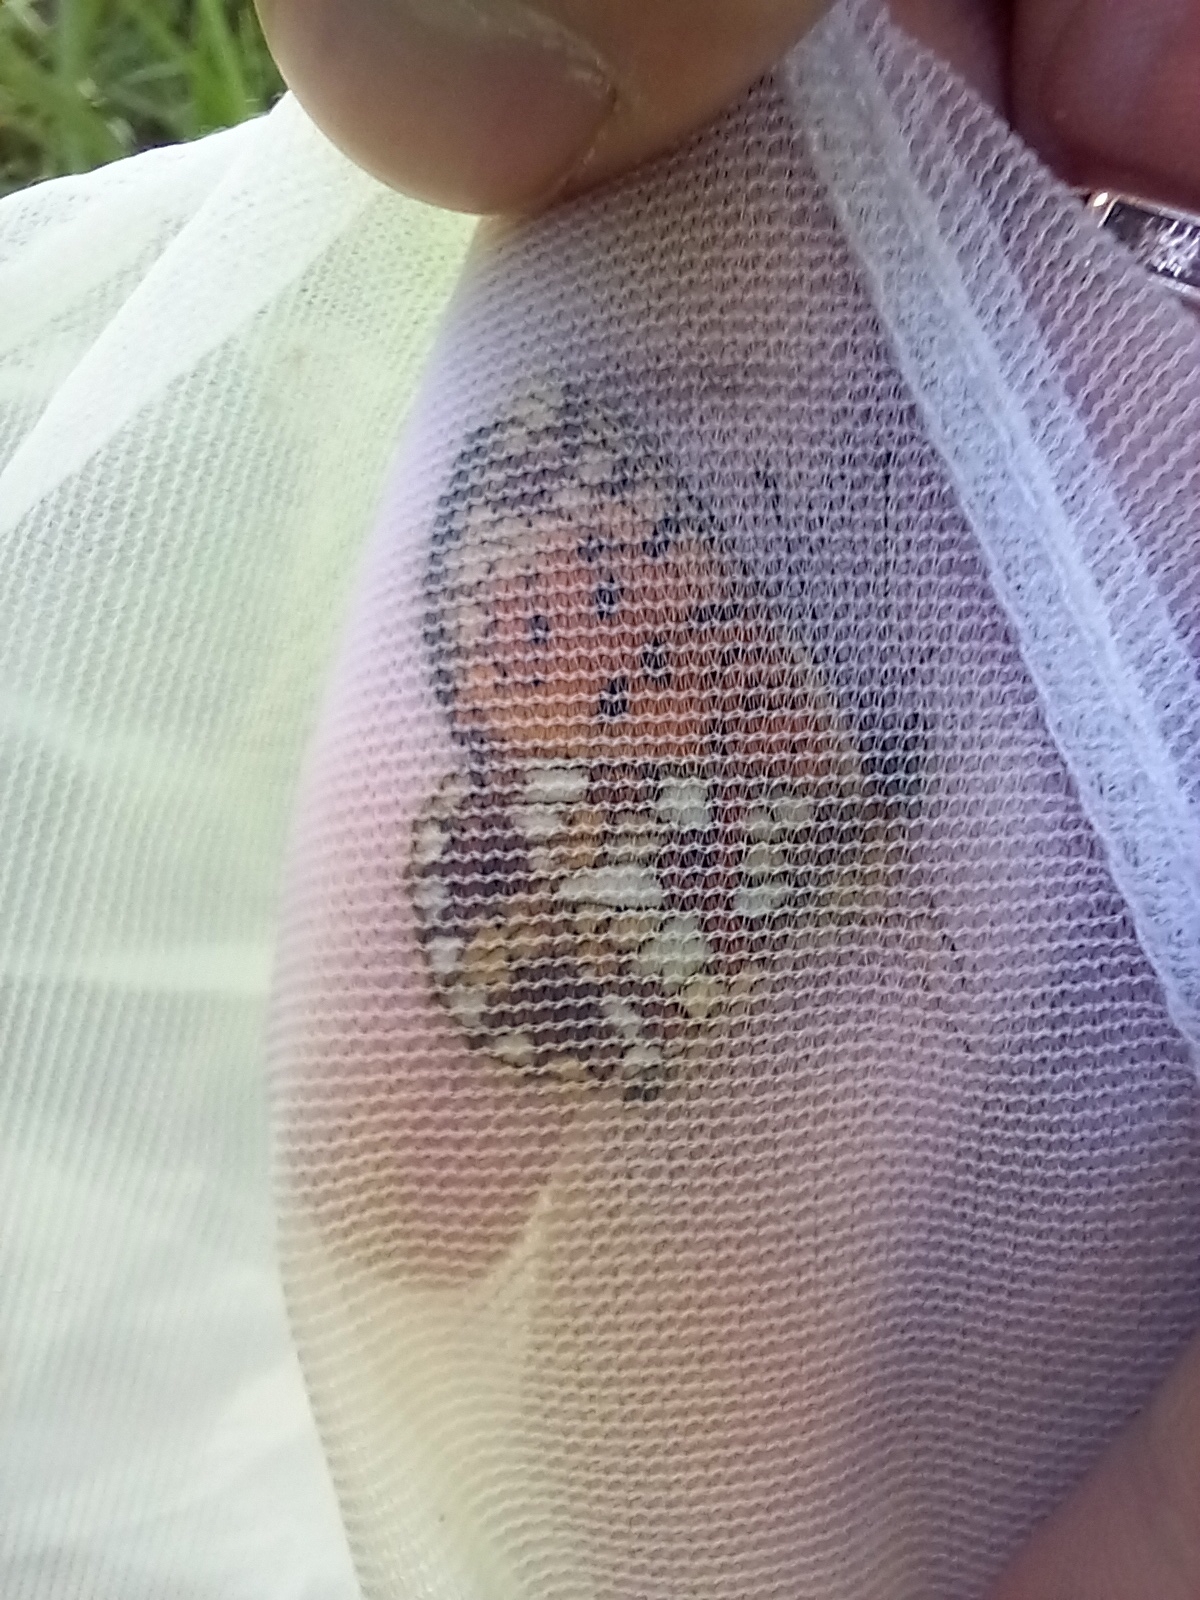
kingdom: Animalia
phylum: Arthropoda
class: Insecta
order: Lepidoptera
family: Nymphalidae
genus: Boloria
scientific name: Boloria selene
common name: Small pearl-bordered fritillary
